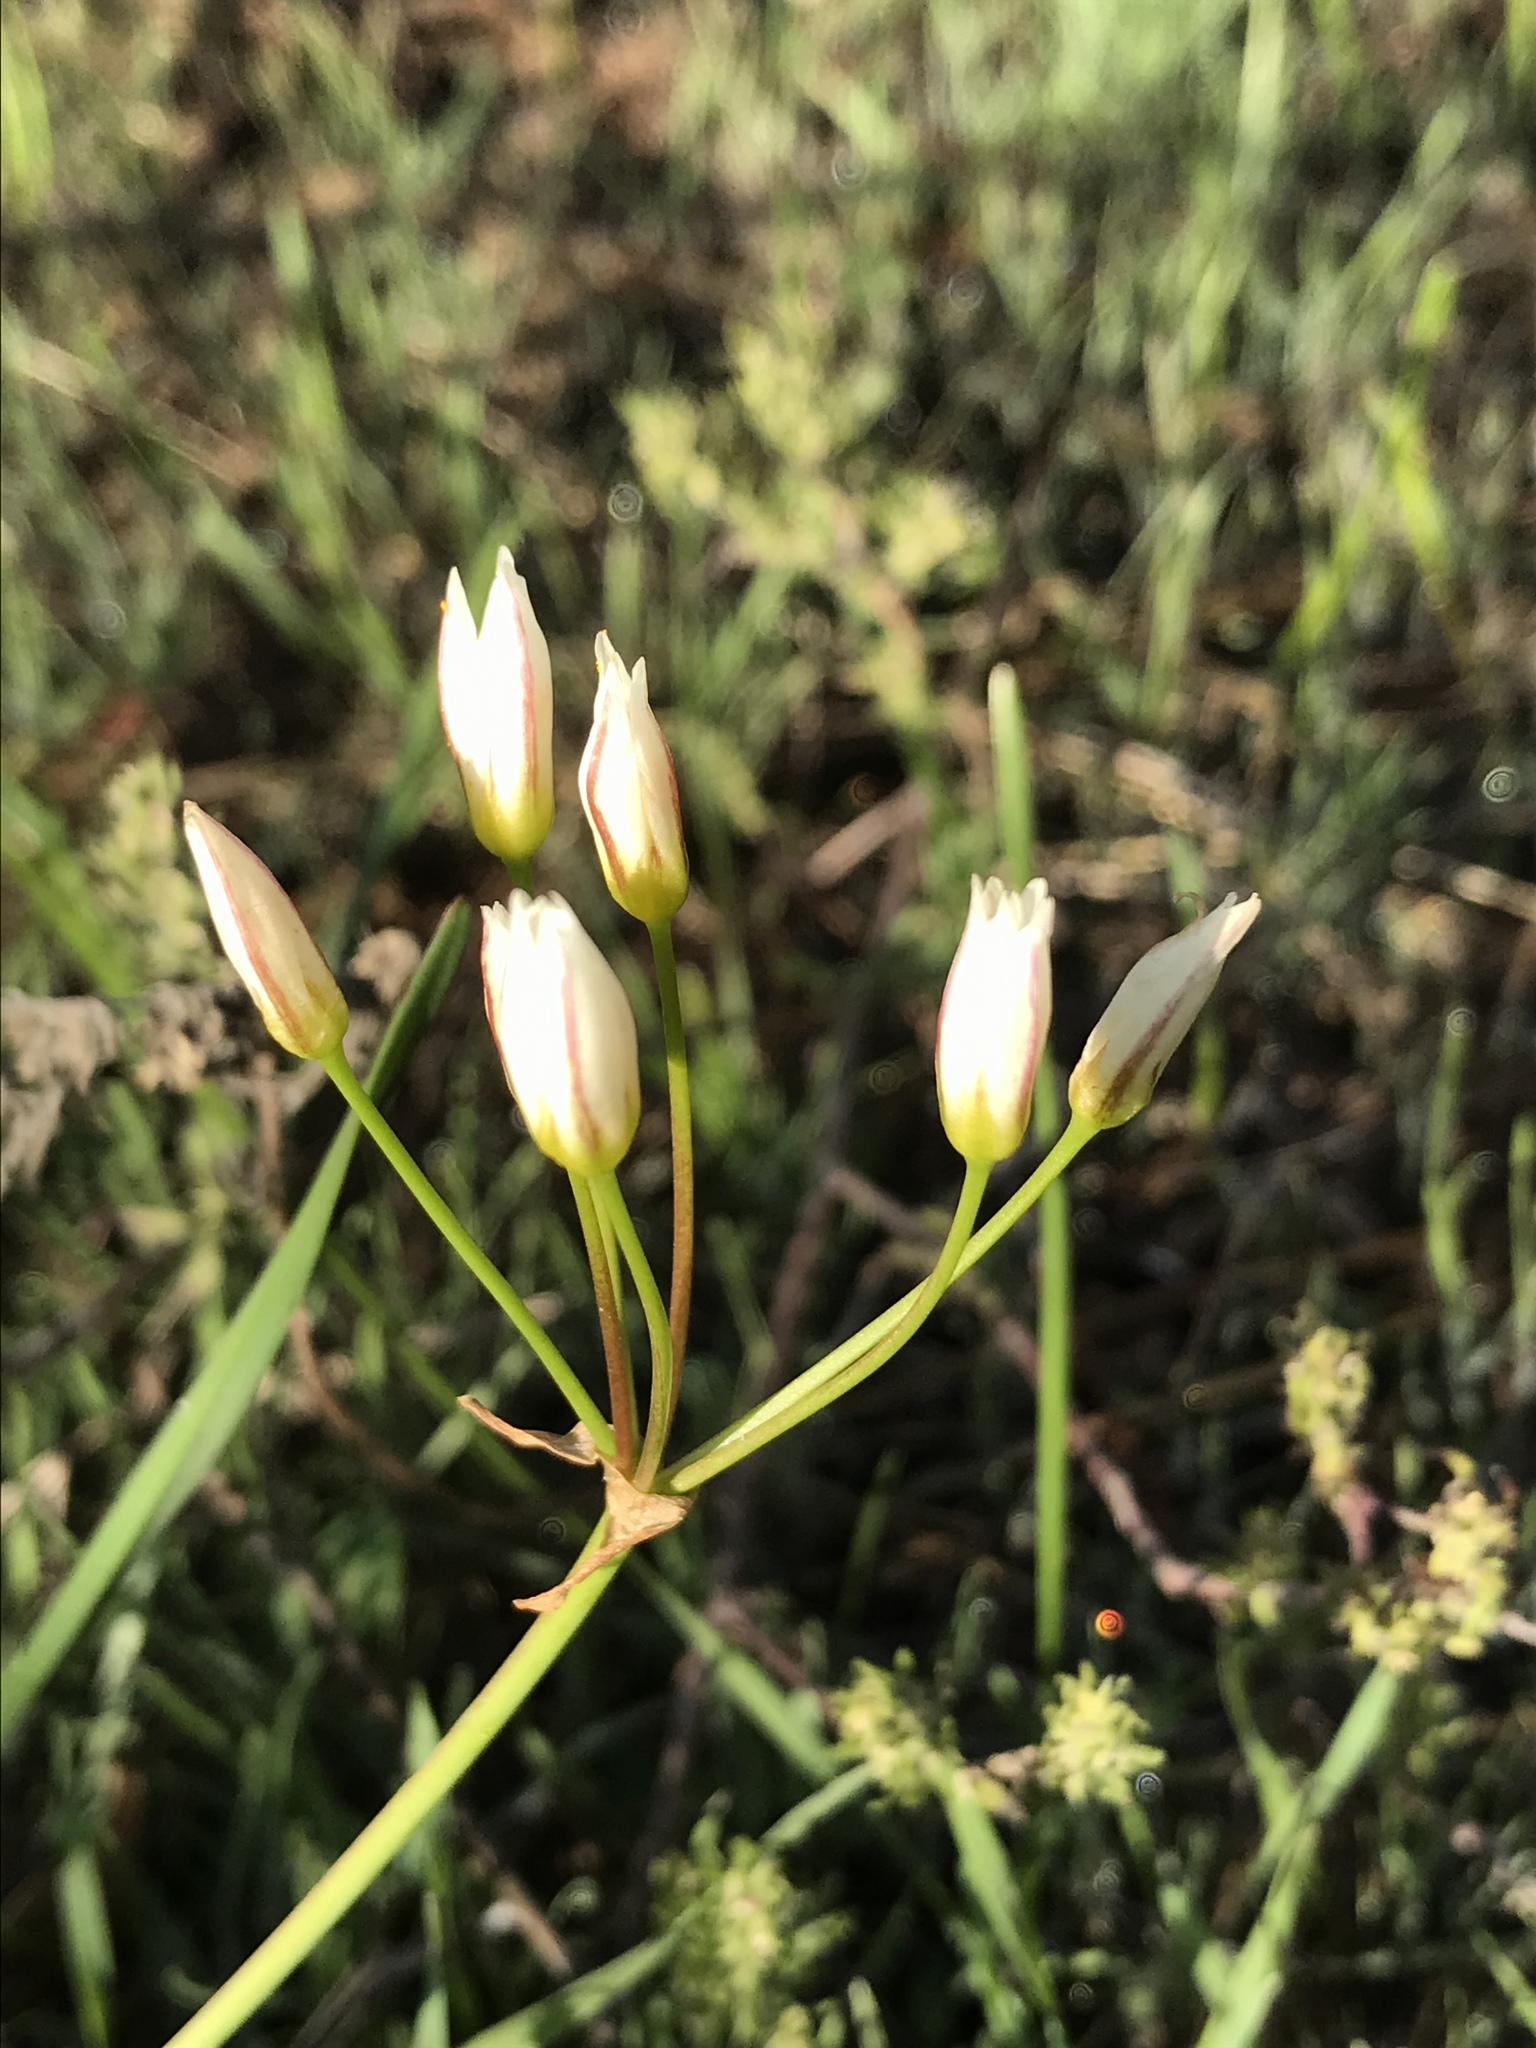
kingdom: Plantae
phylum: Tracheophyta
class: Liliopsida
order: Asparagales
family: Amaryllidaceae
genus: Nothoscordum
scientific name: Nothoscordum bivalve
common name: Crow-poison
